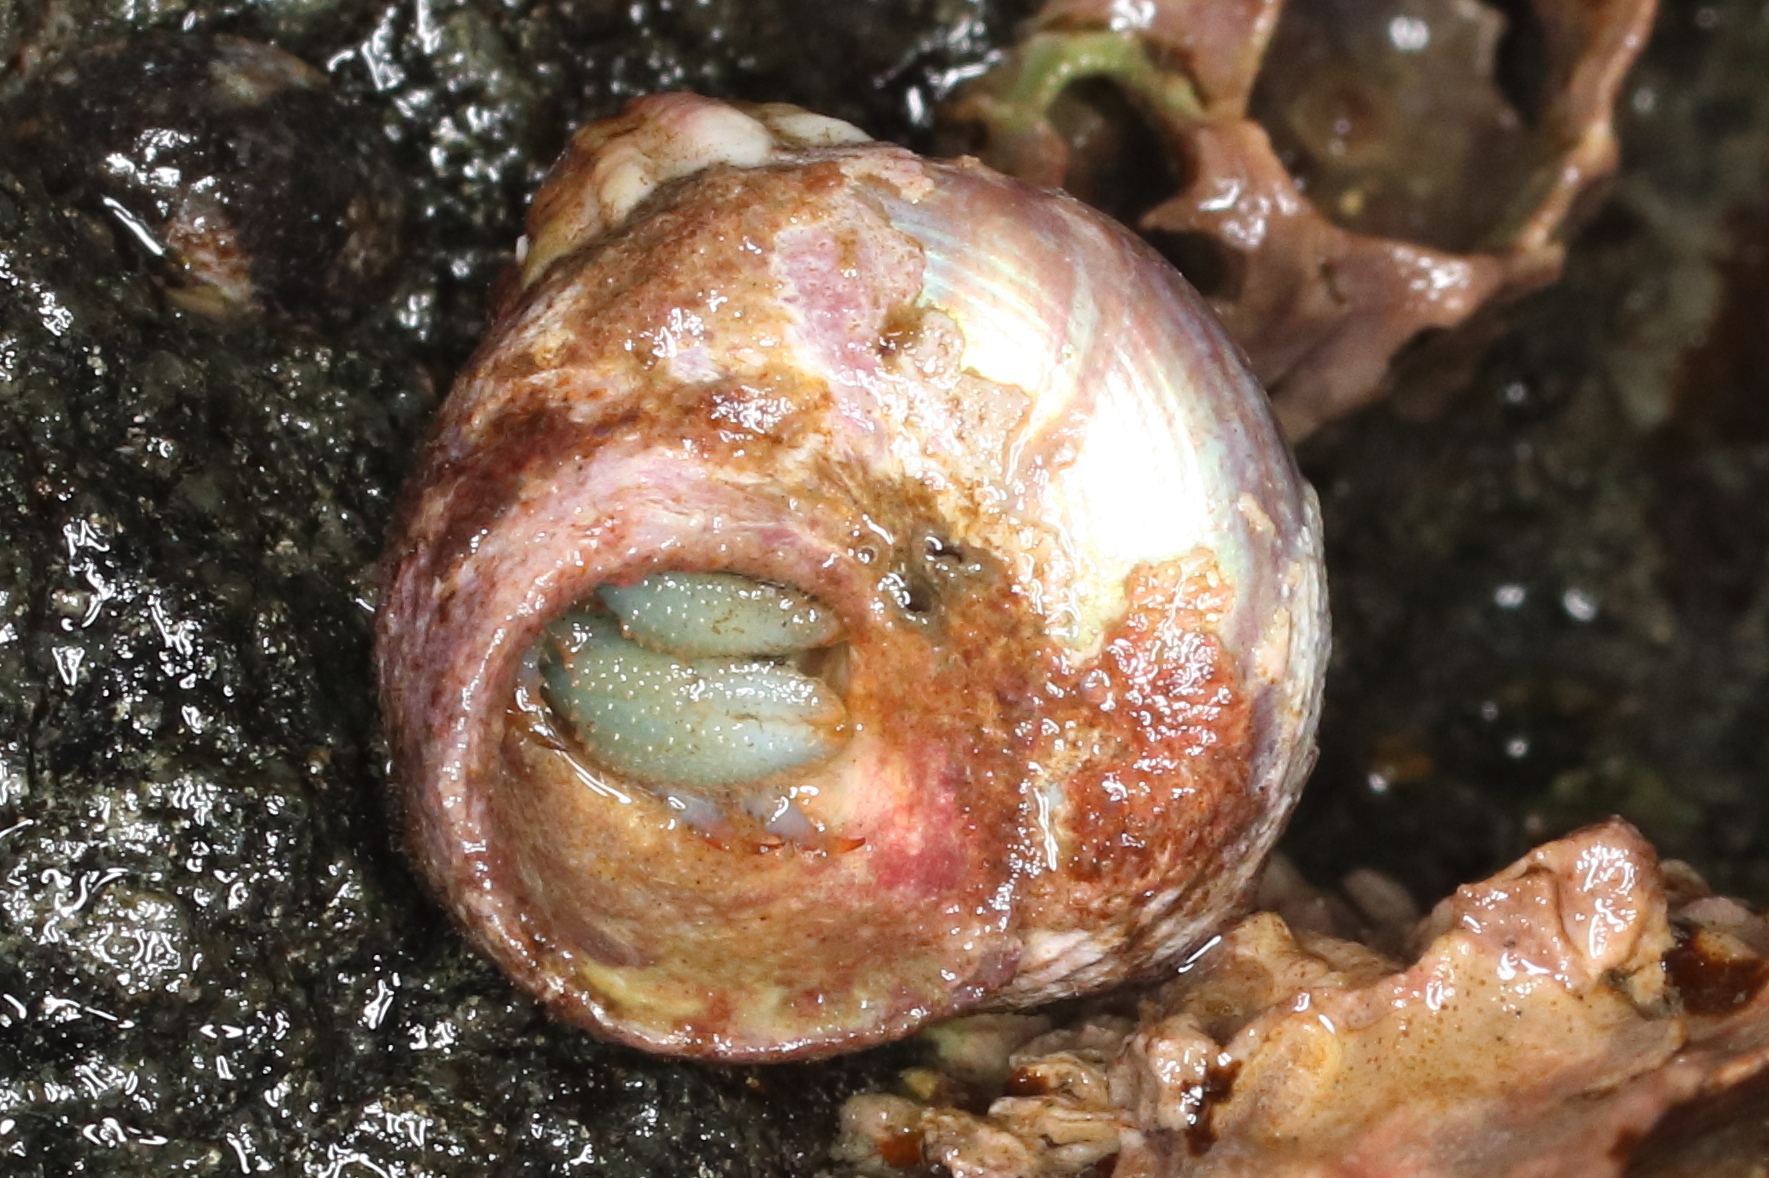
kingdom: Animalia
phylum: Arthropoda
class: Malacostraca
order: Decapoda
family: Paguridae
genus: Pagurus
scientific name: Pagurus beringanus
